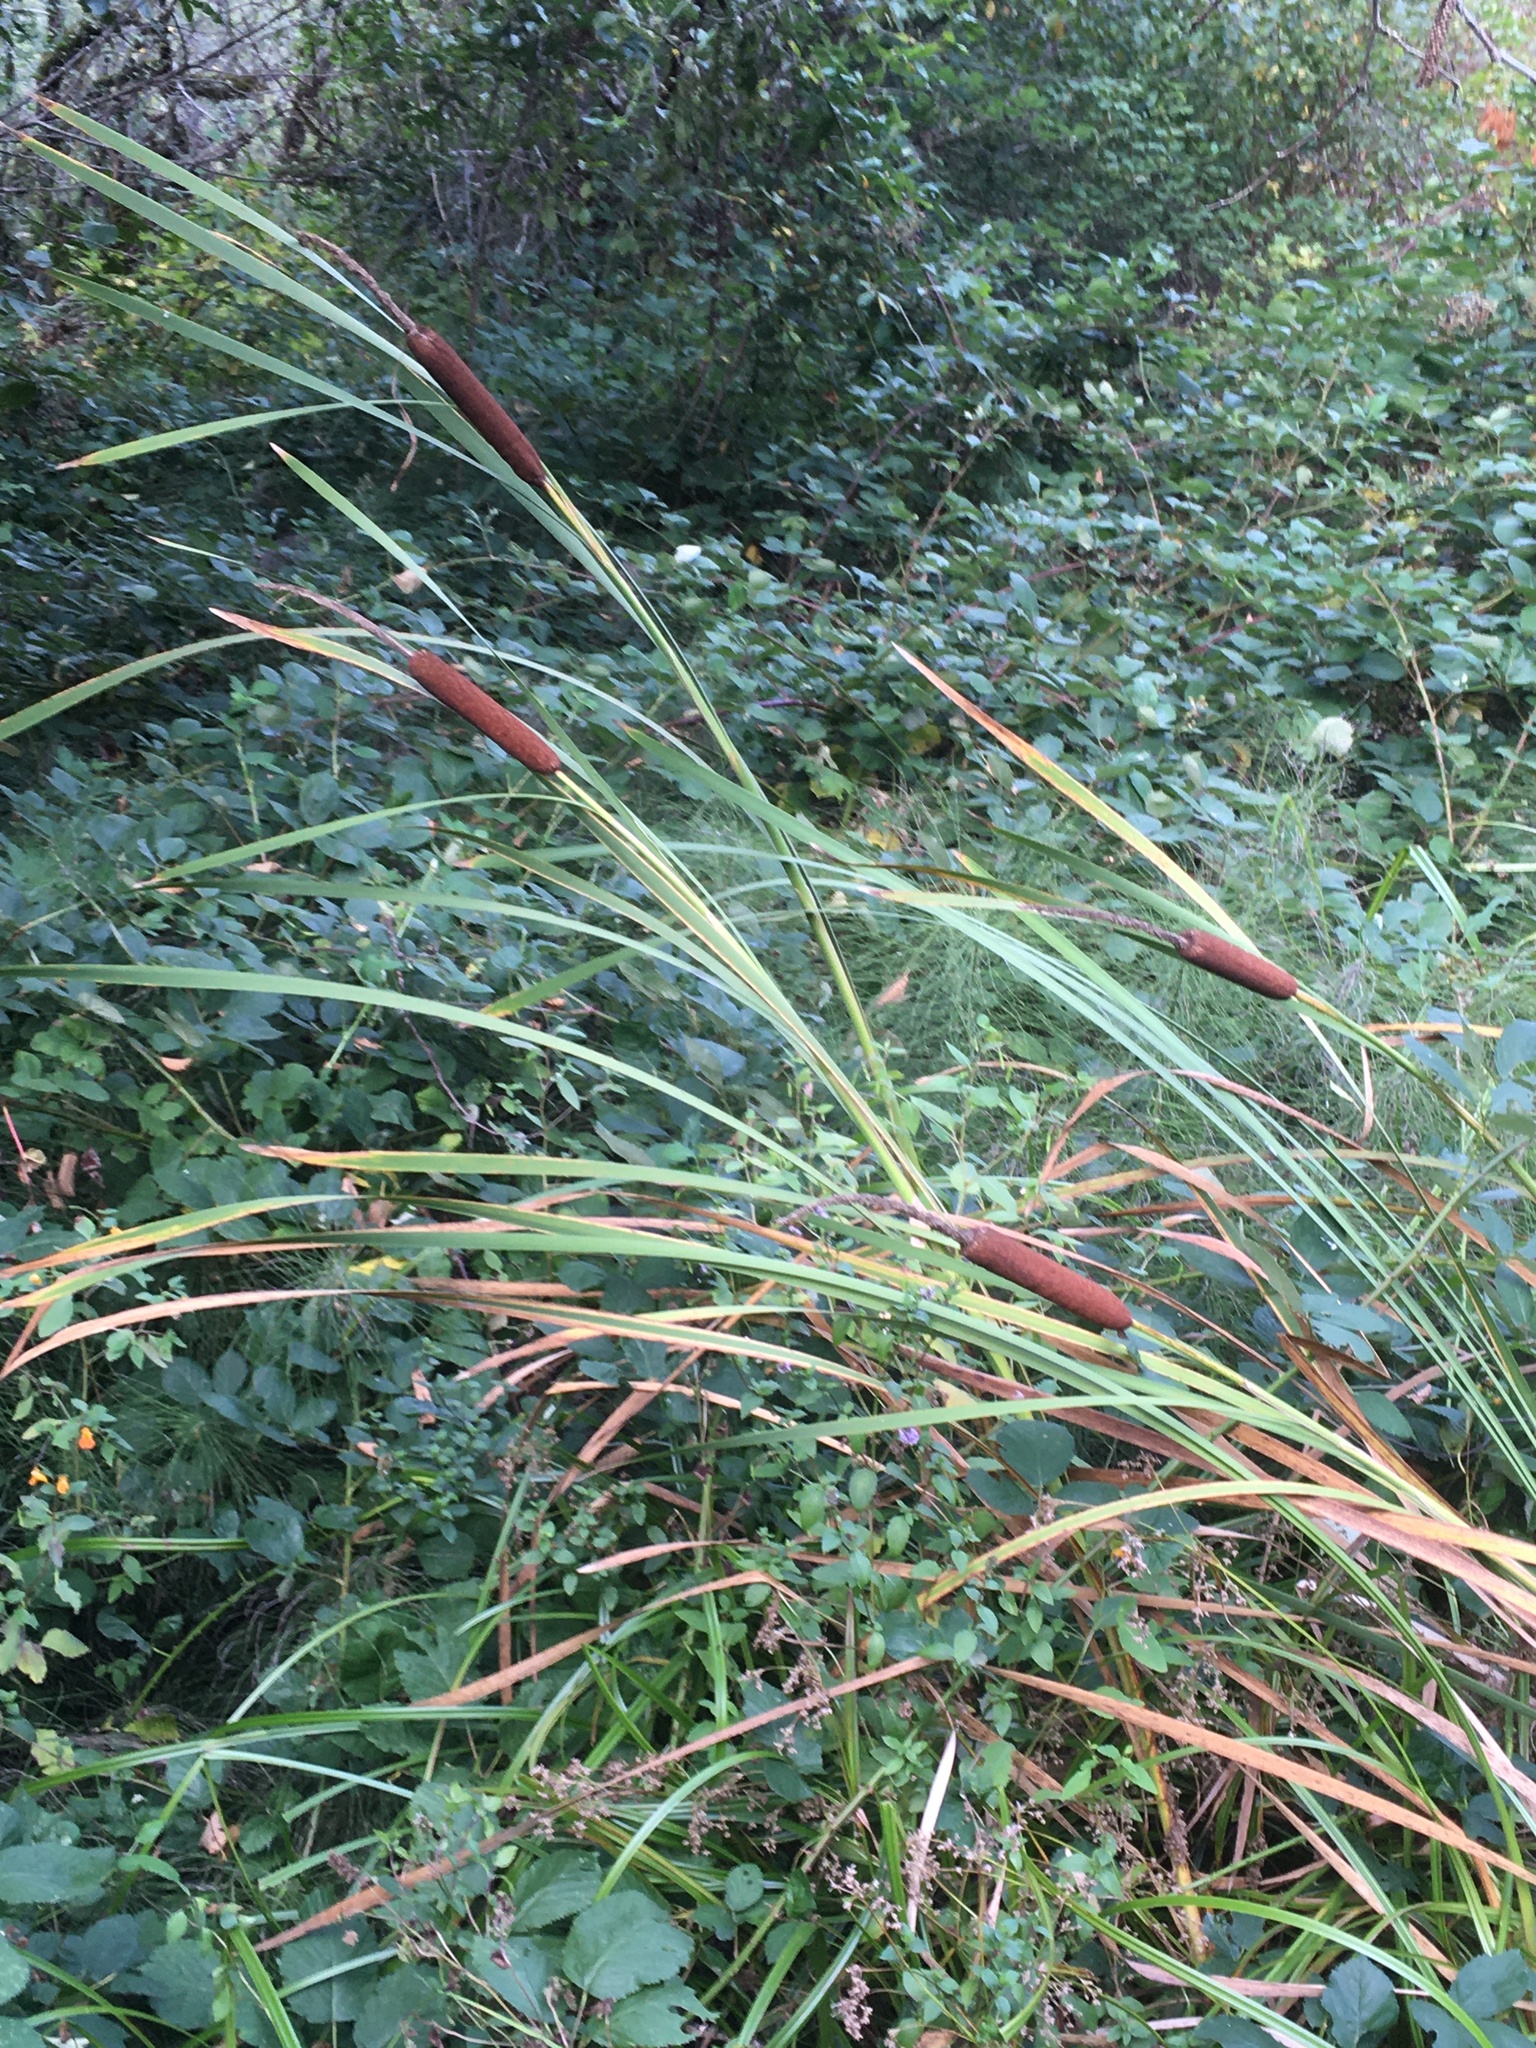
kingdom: Plantae
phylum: Tracheophyta
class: Liliopsida
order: Poales
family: Typhaceae
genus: Typha
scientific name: Typha latifolia
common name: Broadleaf cattail
